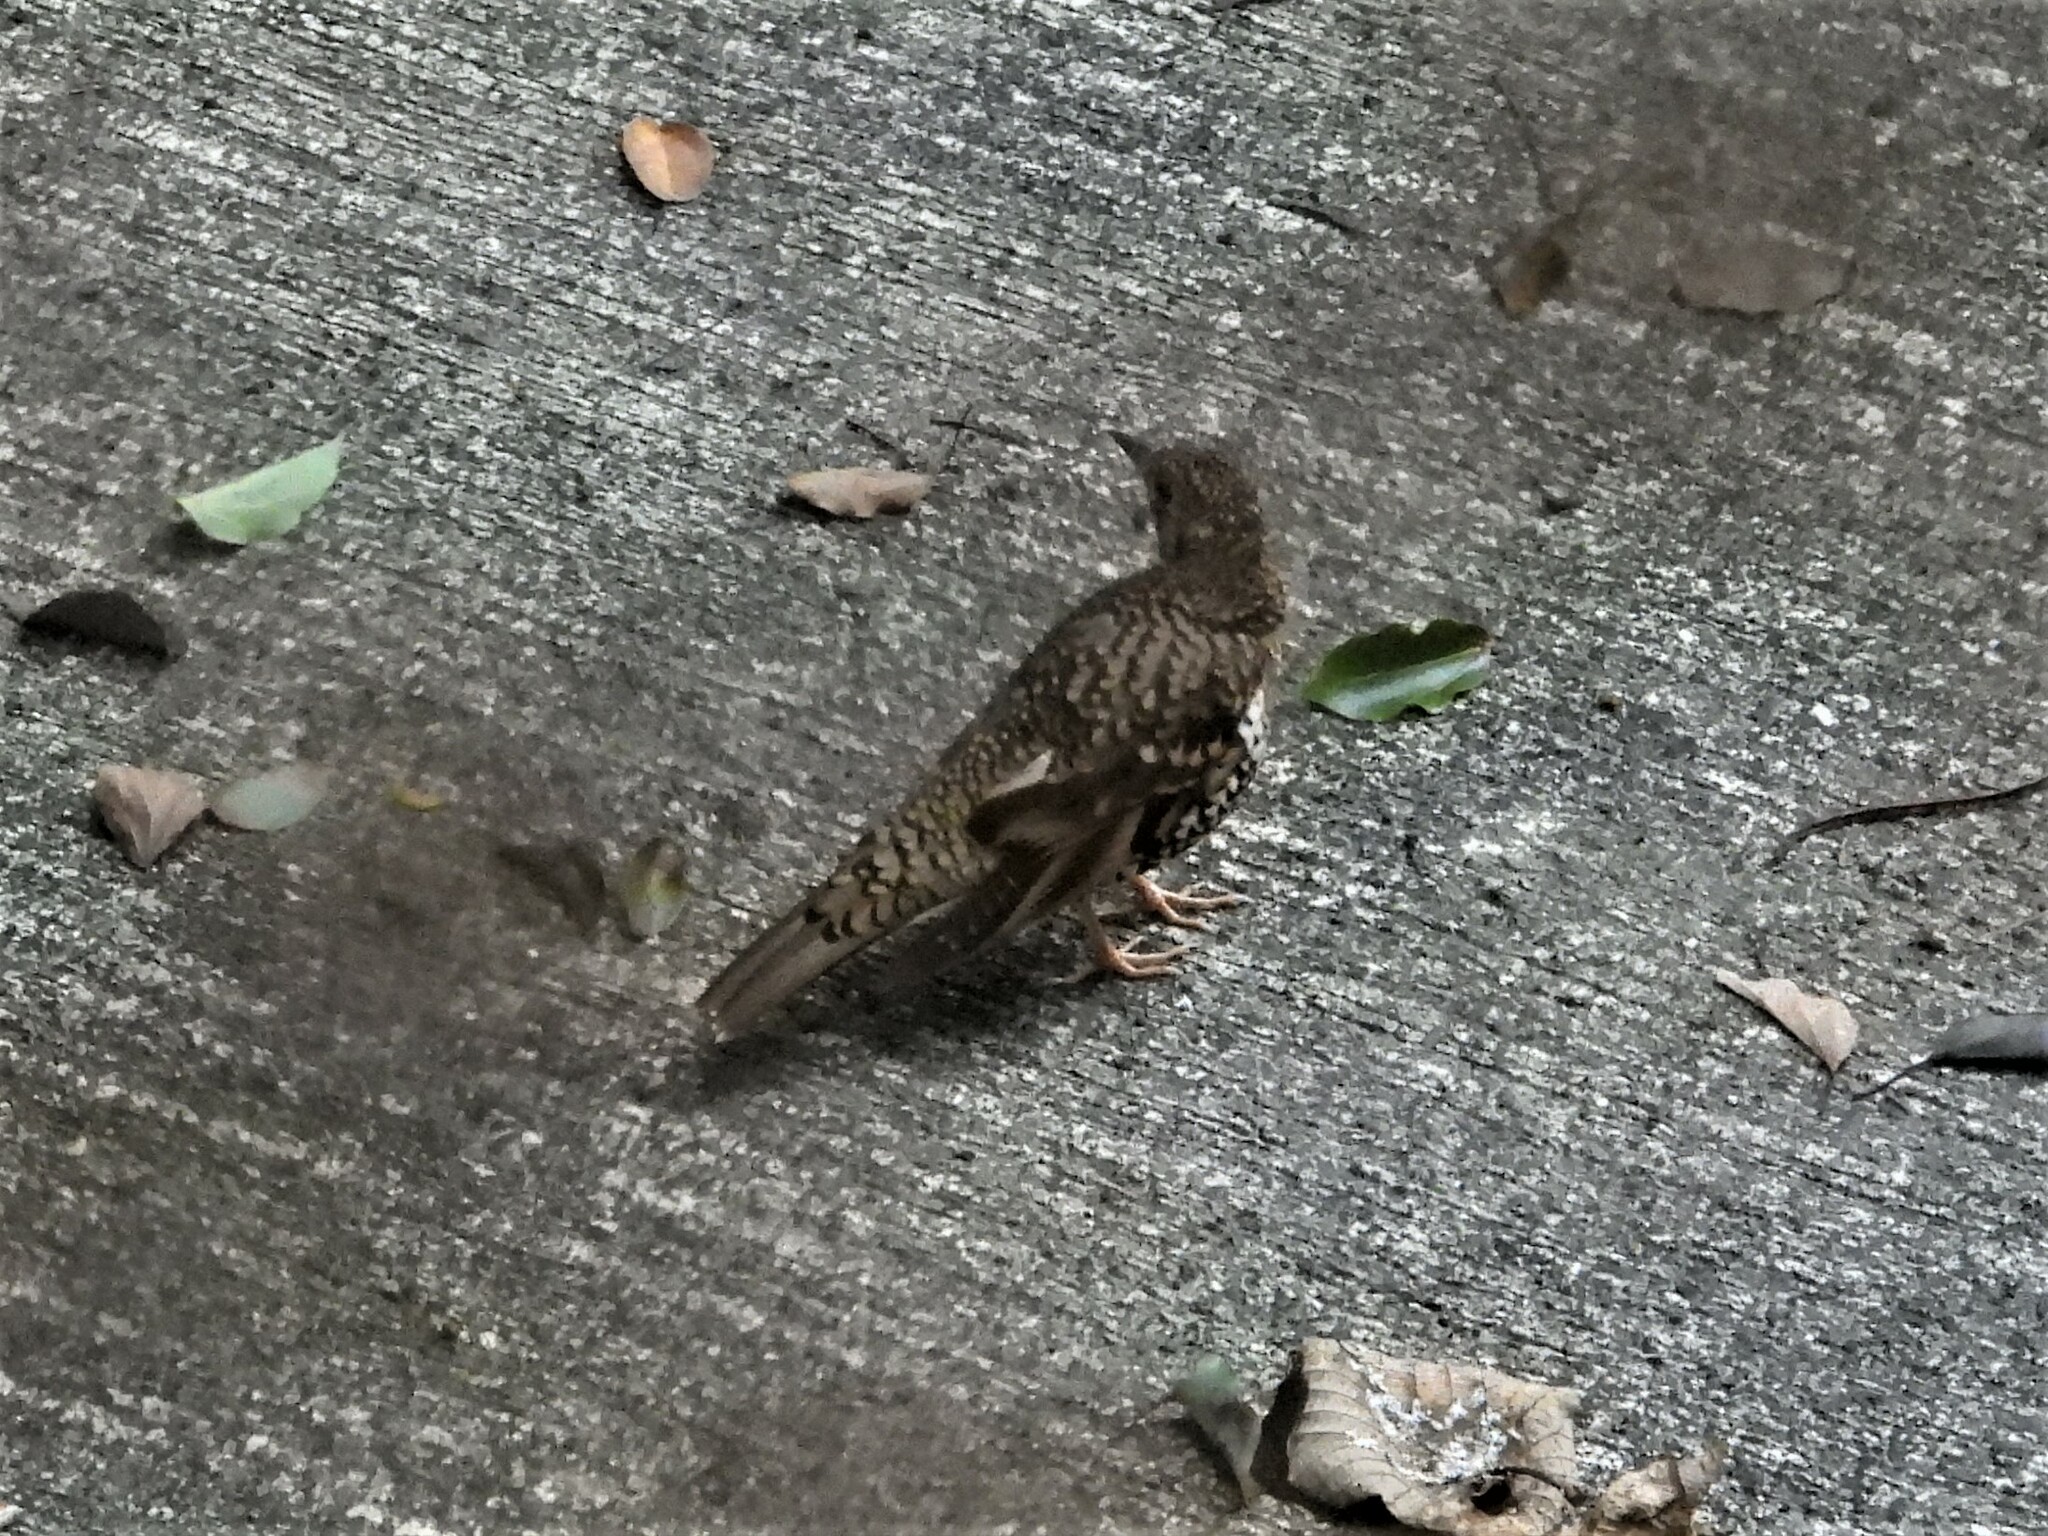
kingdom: Animalia
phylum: Chordata
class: Aves
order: Passeriformes
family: Turdidae
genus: Zoothera
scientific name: Zoothera aurea
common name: White's thrush
